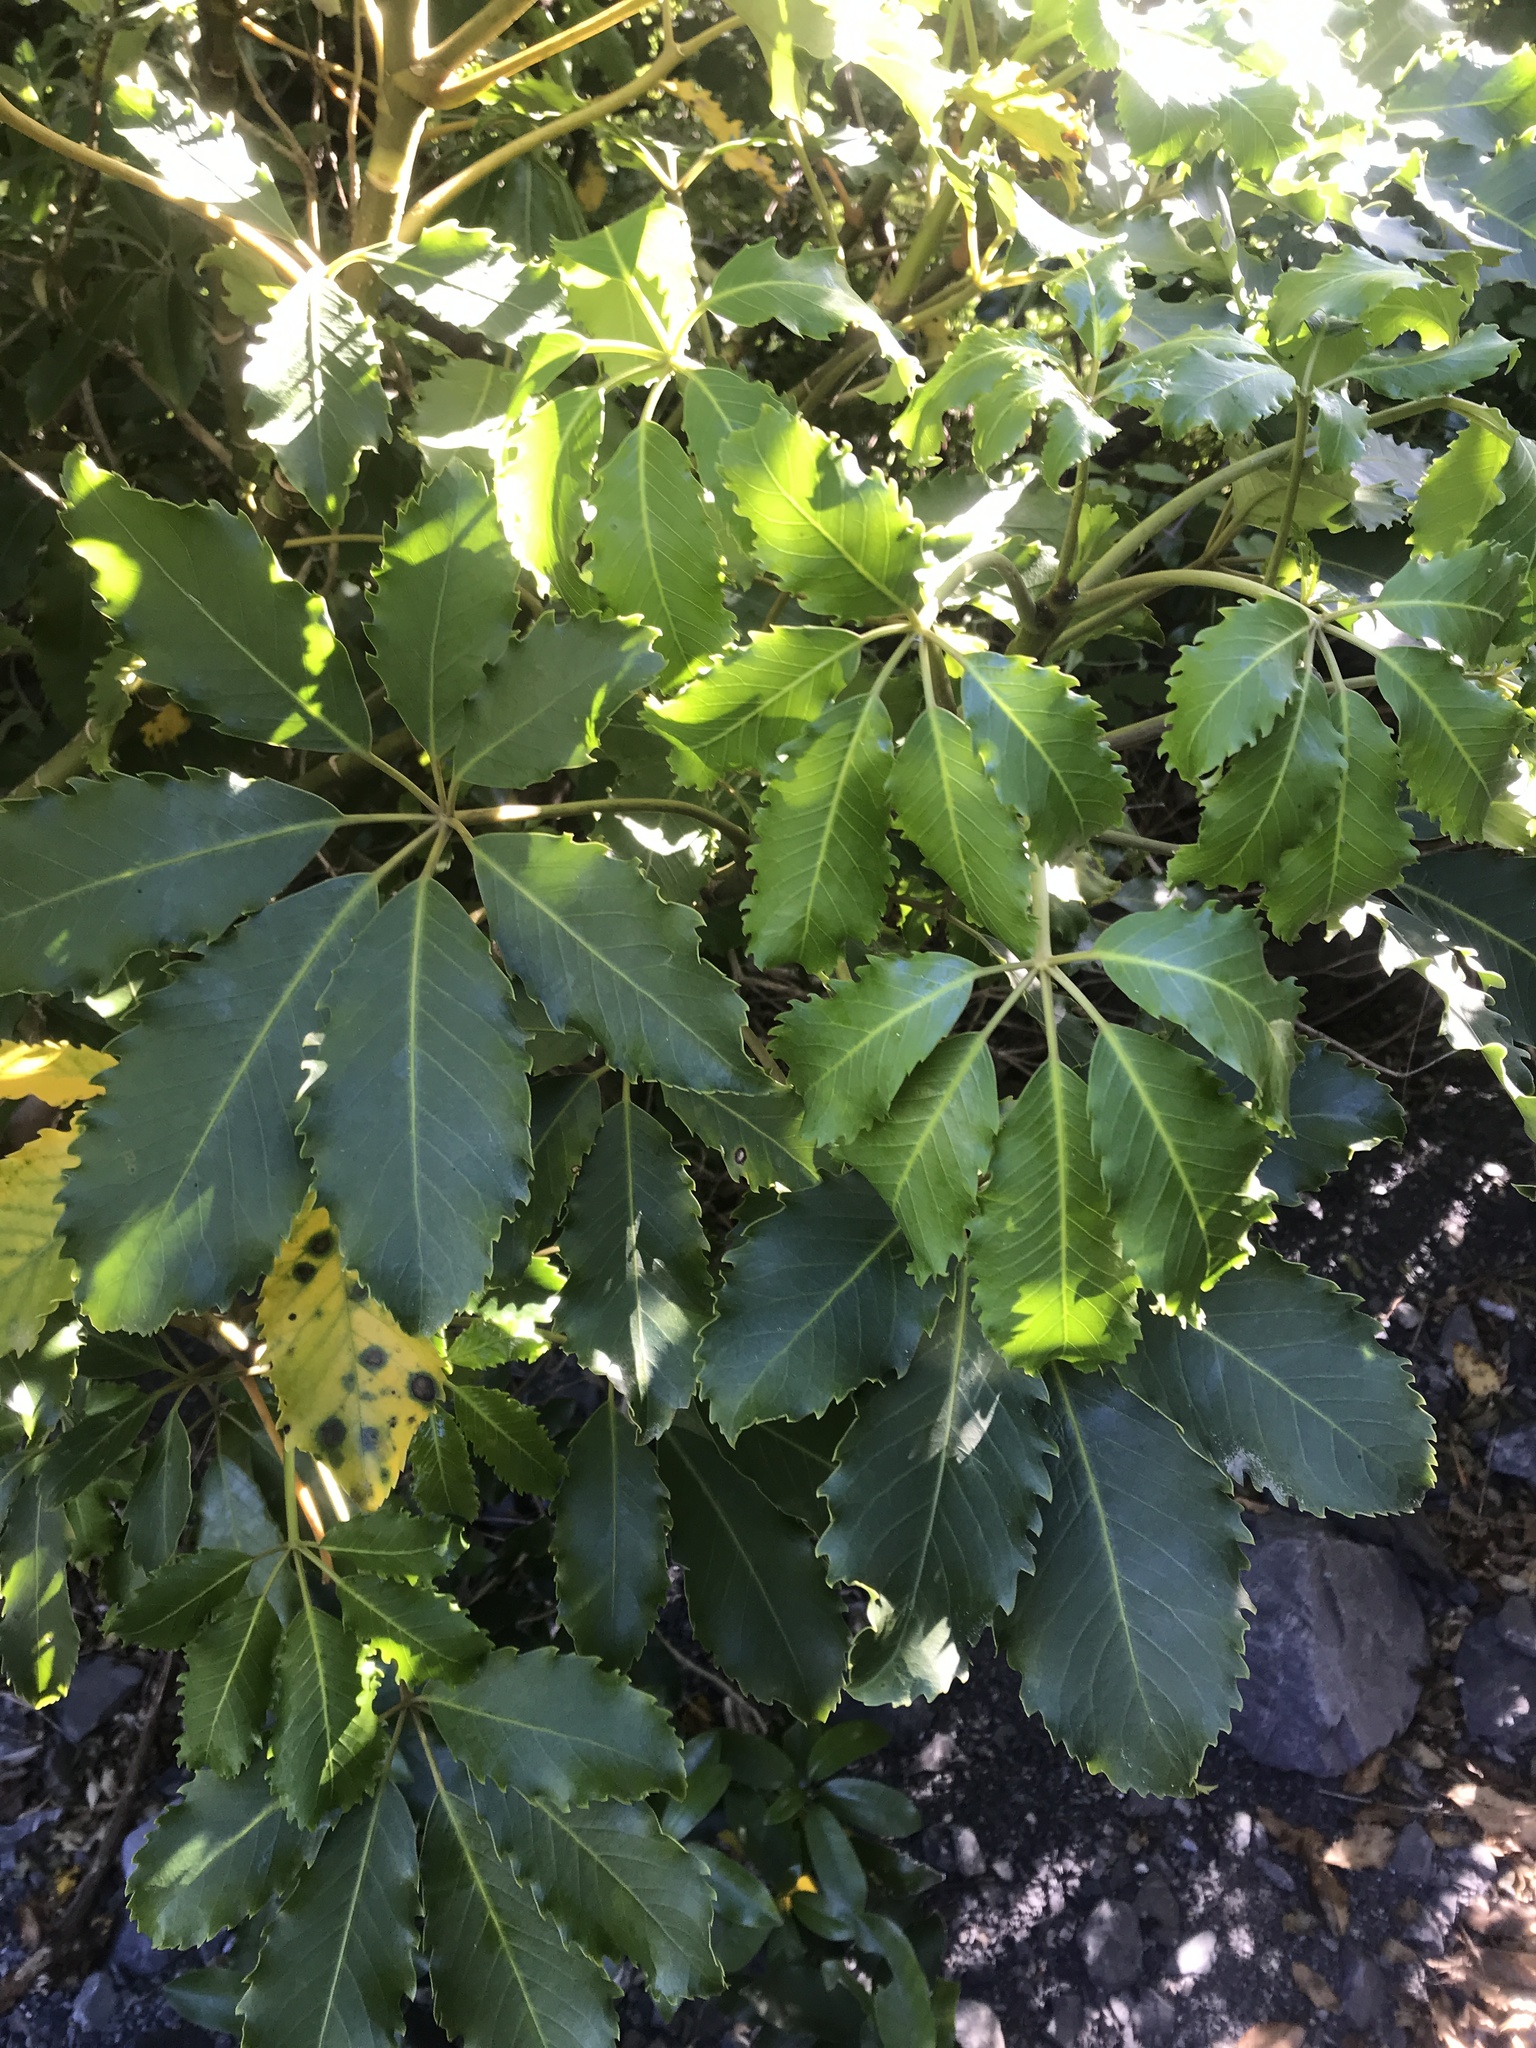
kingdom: Plantae
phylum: Tracheophyta
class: Magnoliopsida
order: Apiales
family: Araliaceae
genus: Neopanax
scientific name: Neopanax arboreus
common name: Five-fingers
